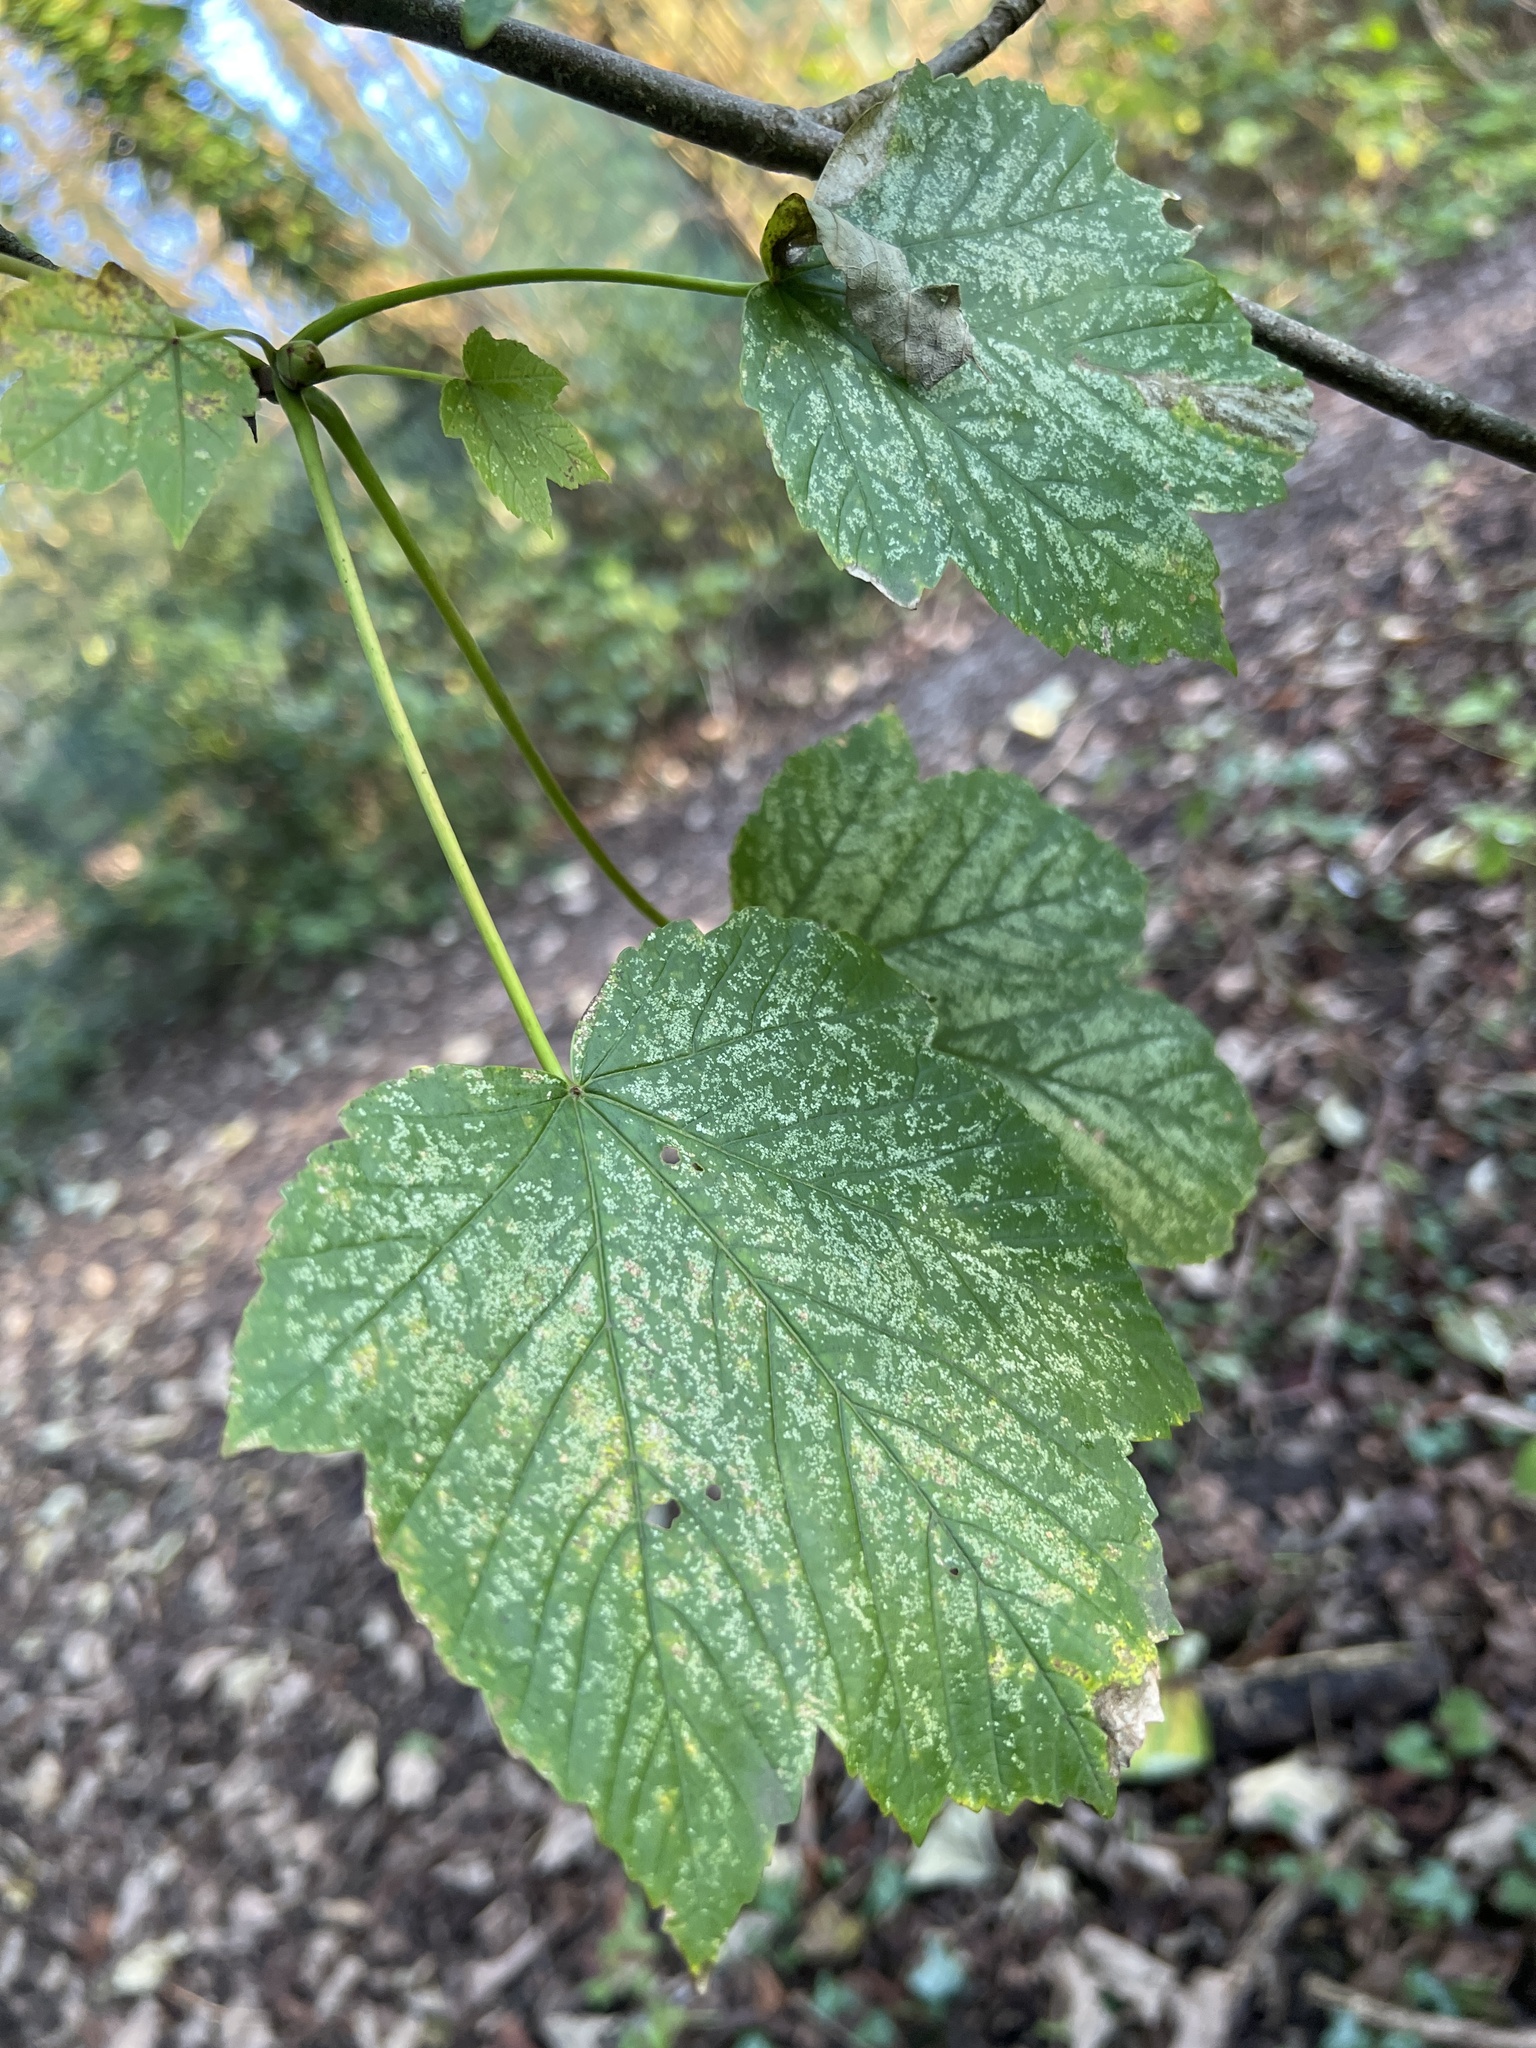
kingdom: Plantae
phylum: Tracheophyta
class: Magnoliopsida
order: Sapindales
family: Sapindaceae
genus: Acer
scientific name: Acer pseudoplatanus
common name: Sycamore
